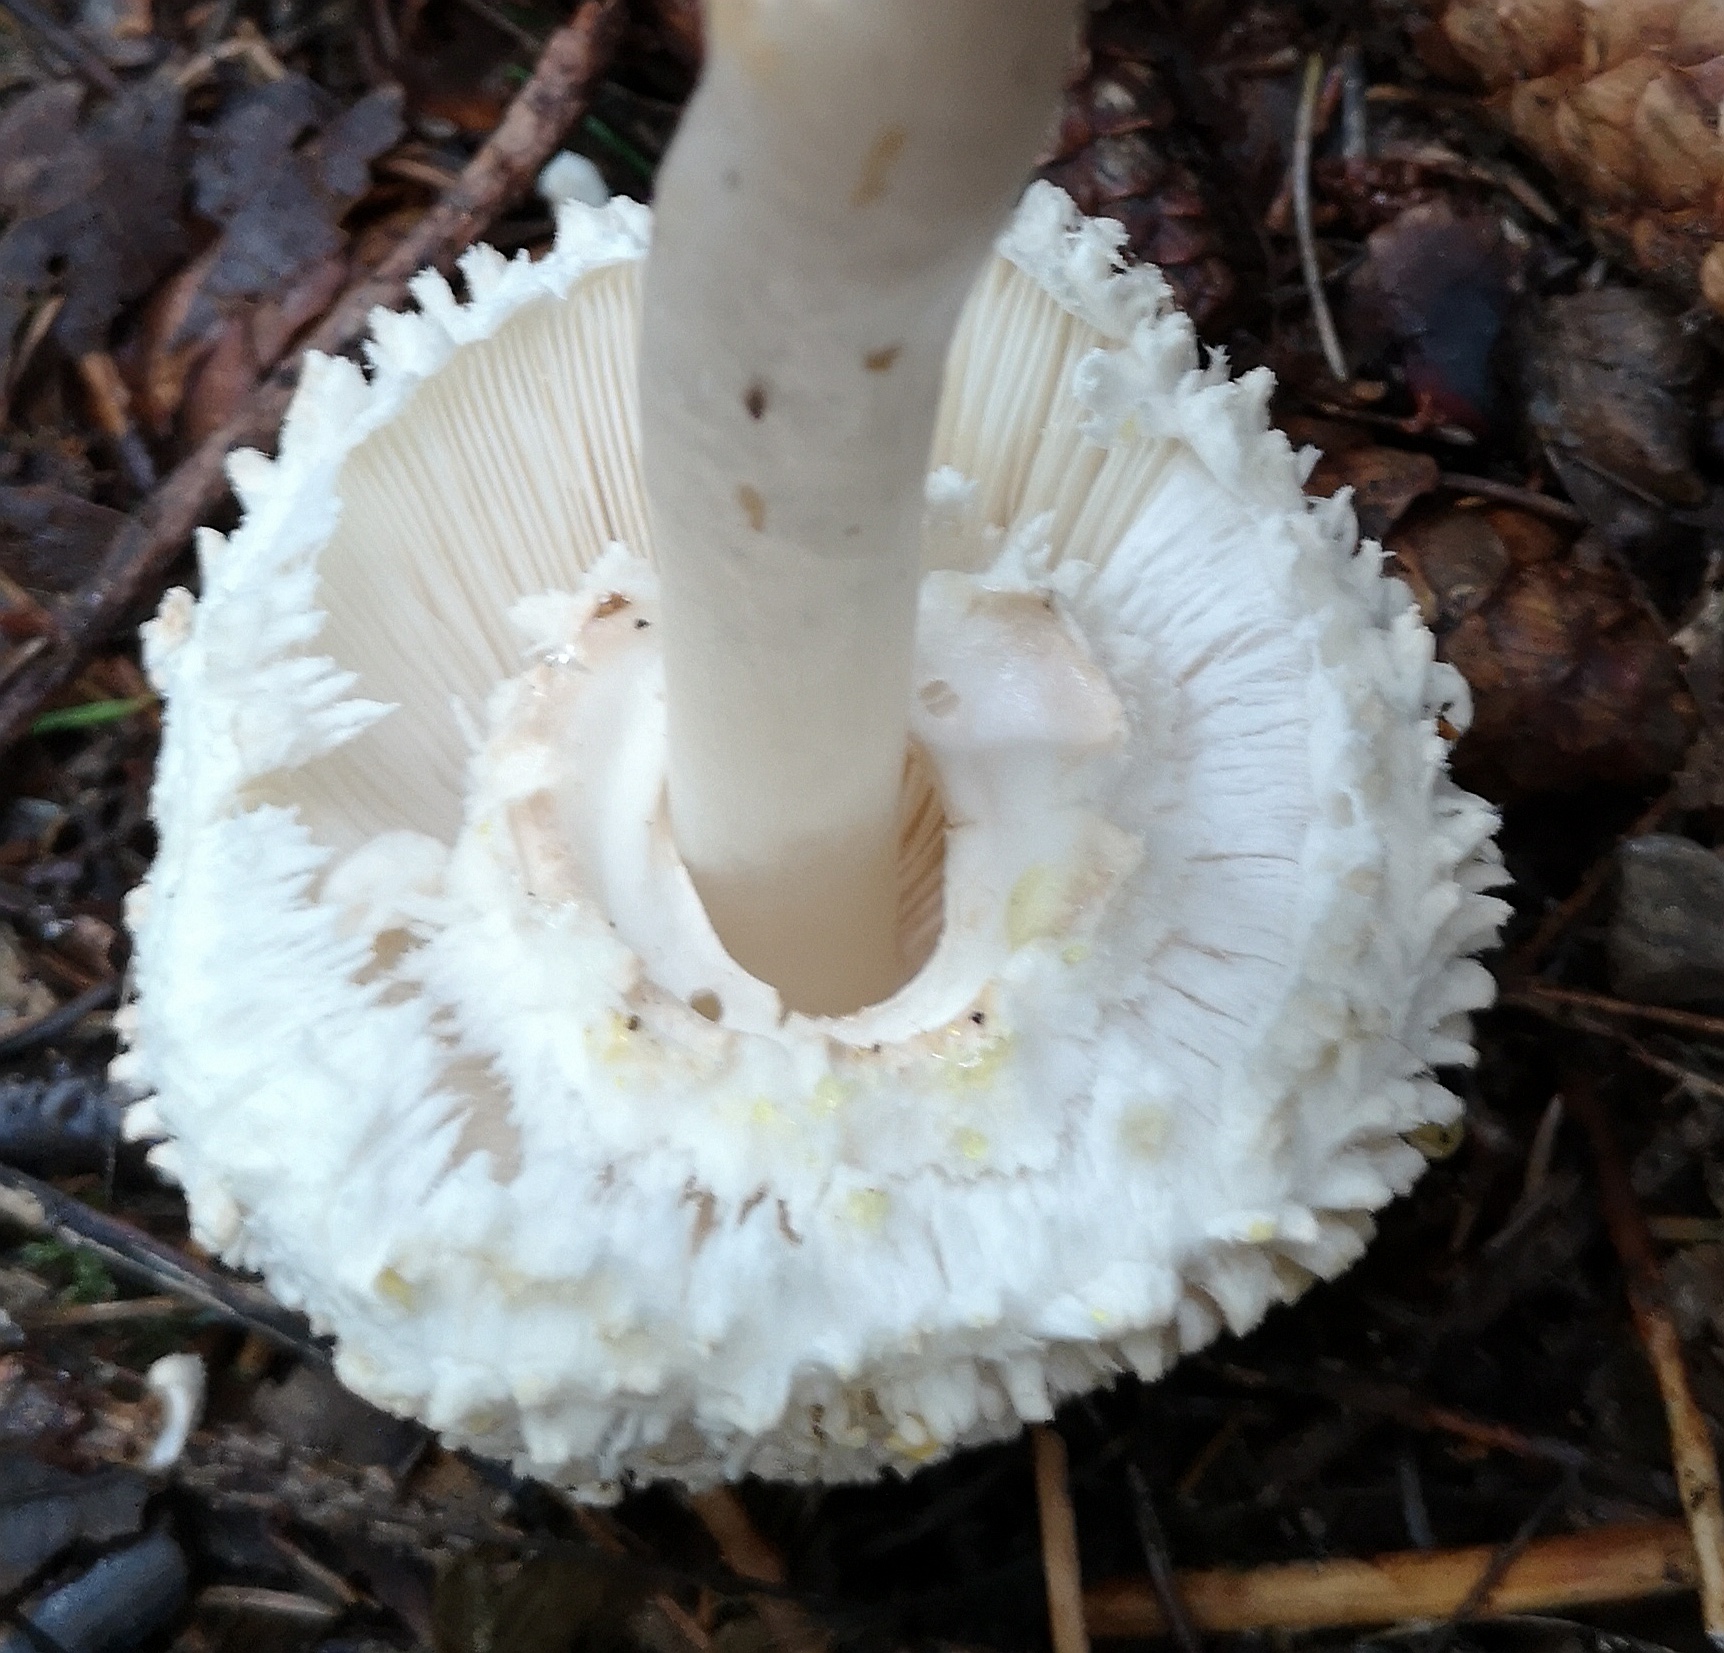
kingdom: Fungi
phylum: Basidiomycota
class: Agaricomycetes
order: Agaricales
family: Agaricaceae
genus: Leucoagaricus
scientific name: Leucoagaricus nympharum
